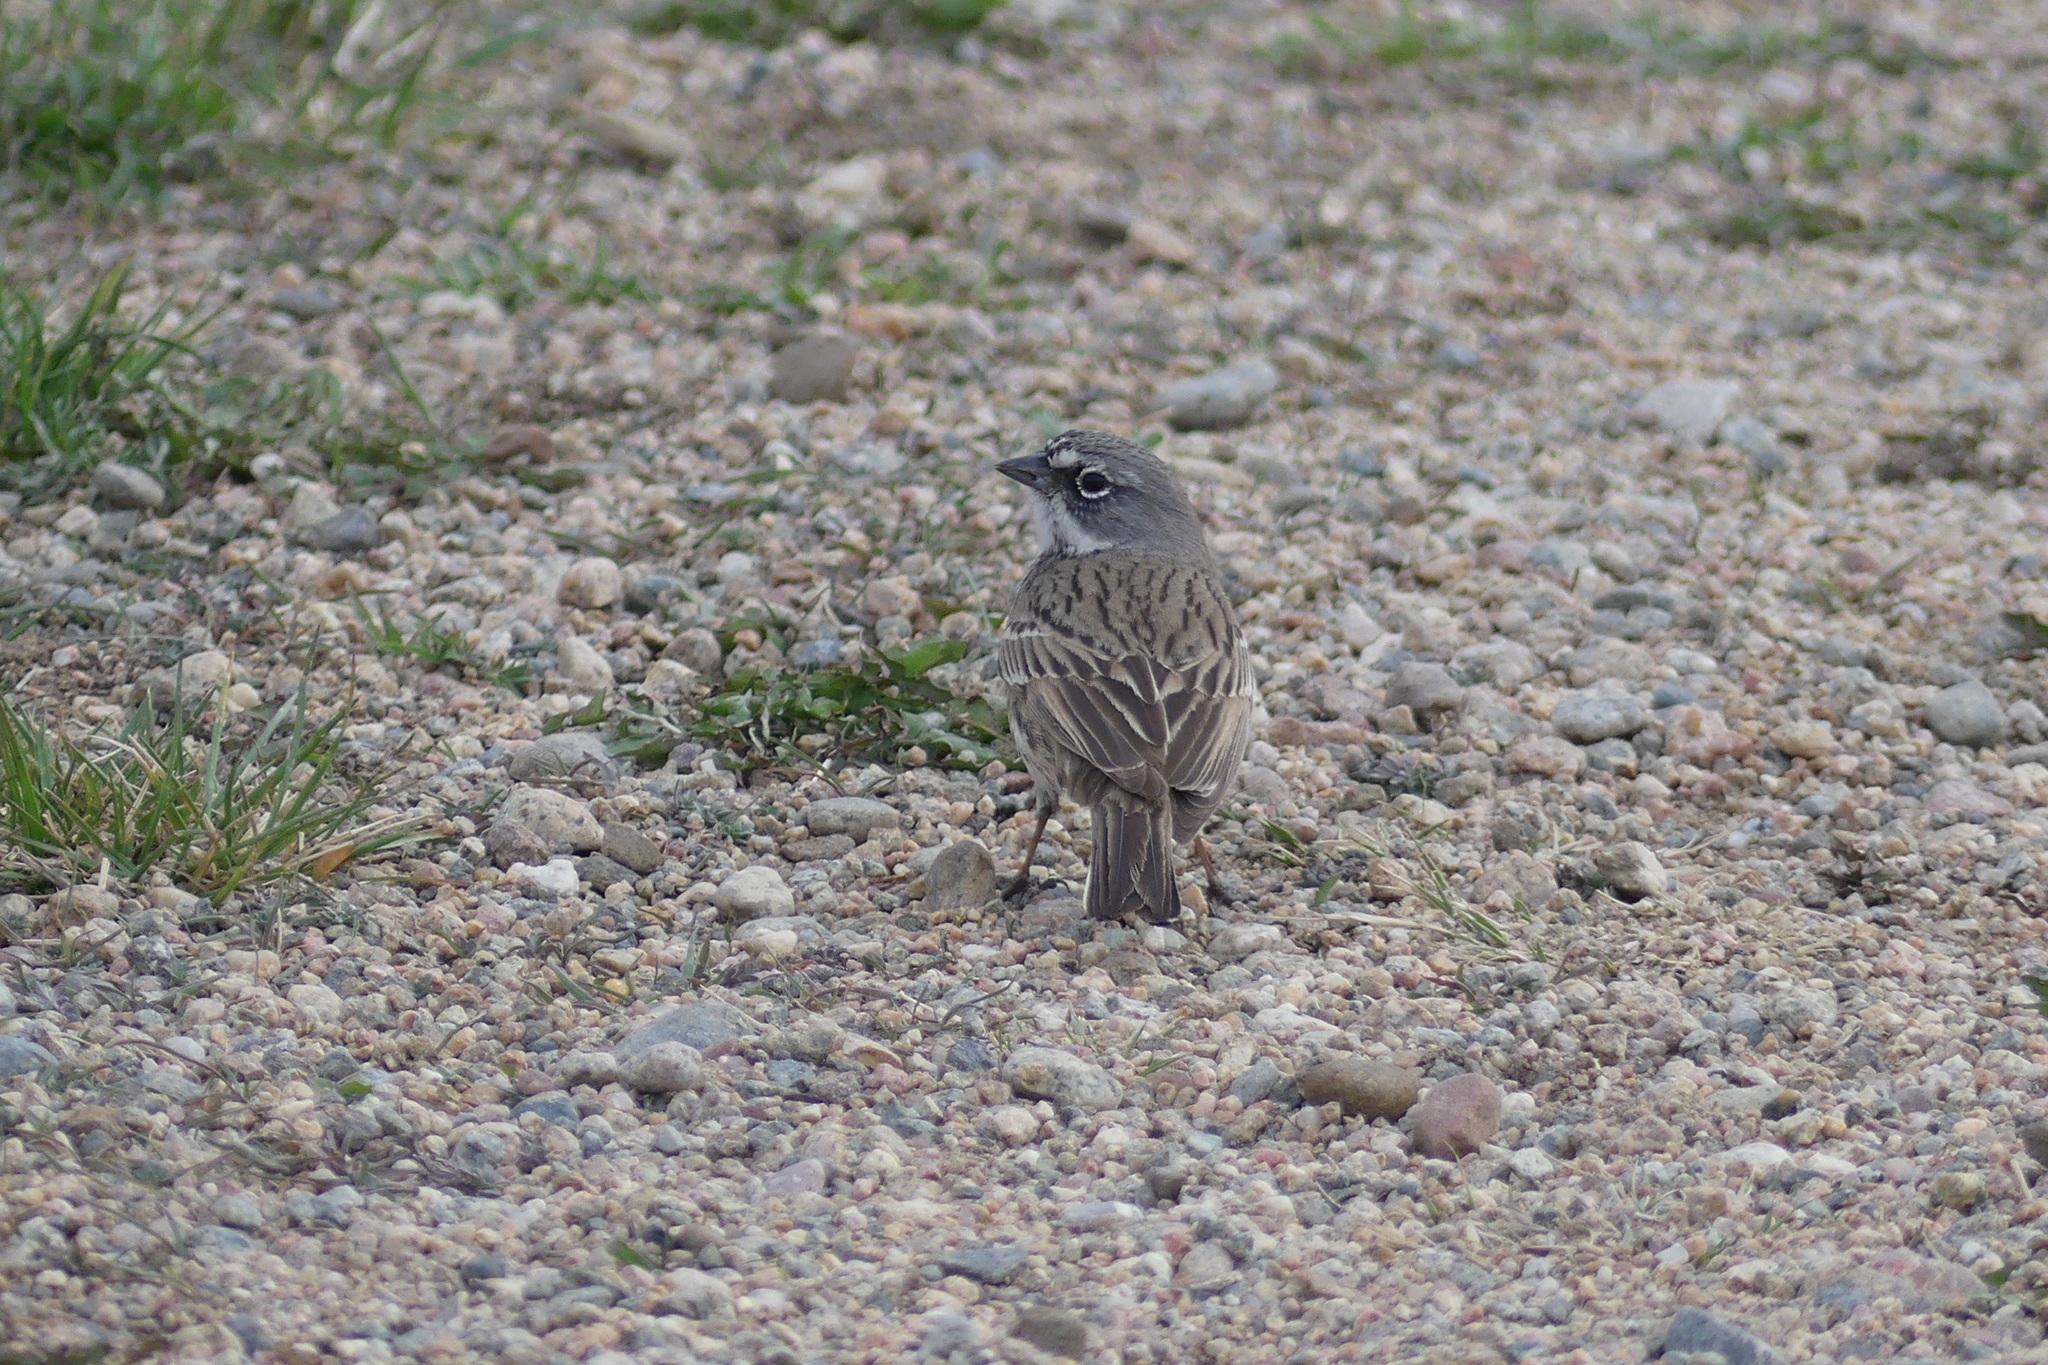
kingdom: Animalia
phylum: Chordata
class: Aves
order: Passeriformes
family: Passerellidae
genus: Artemisiospiza
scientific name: Artemisiospiza nevadensis
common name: Sagebrush sparrow
